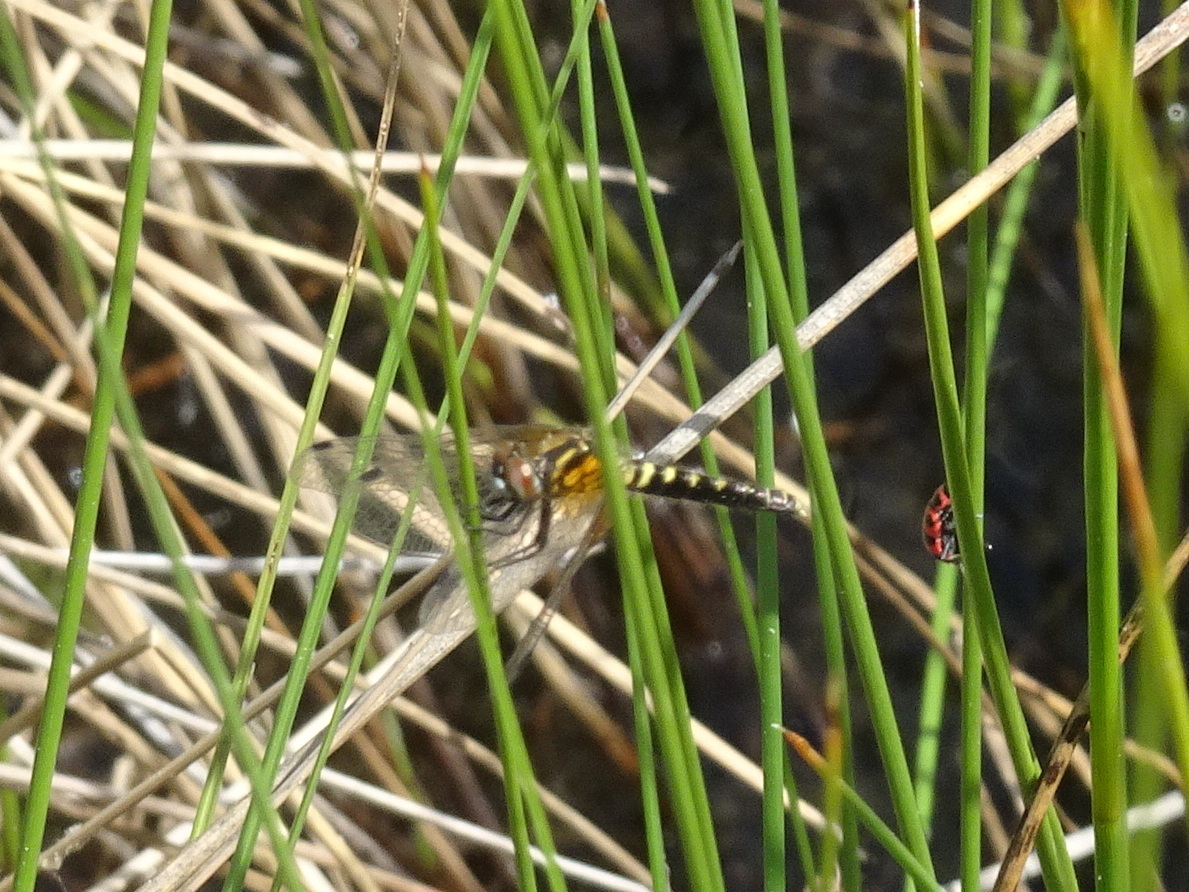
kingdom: Animalia
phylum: Arthropoda
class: Insecta
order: Odonata
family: Libellulidae
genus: Nannothemis
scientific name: Nannothemis bella
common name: Elfin skimmer
